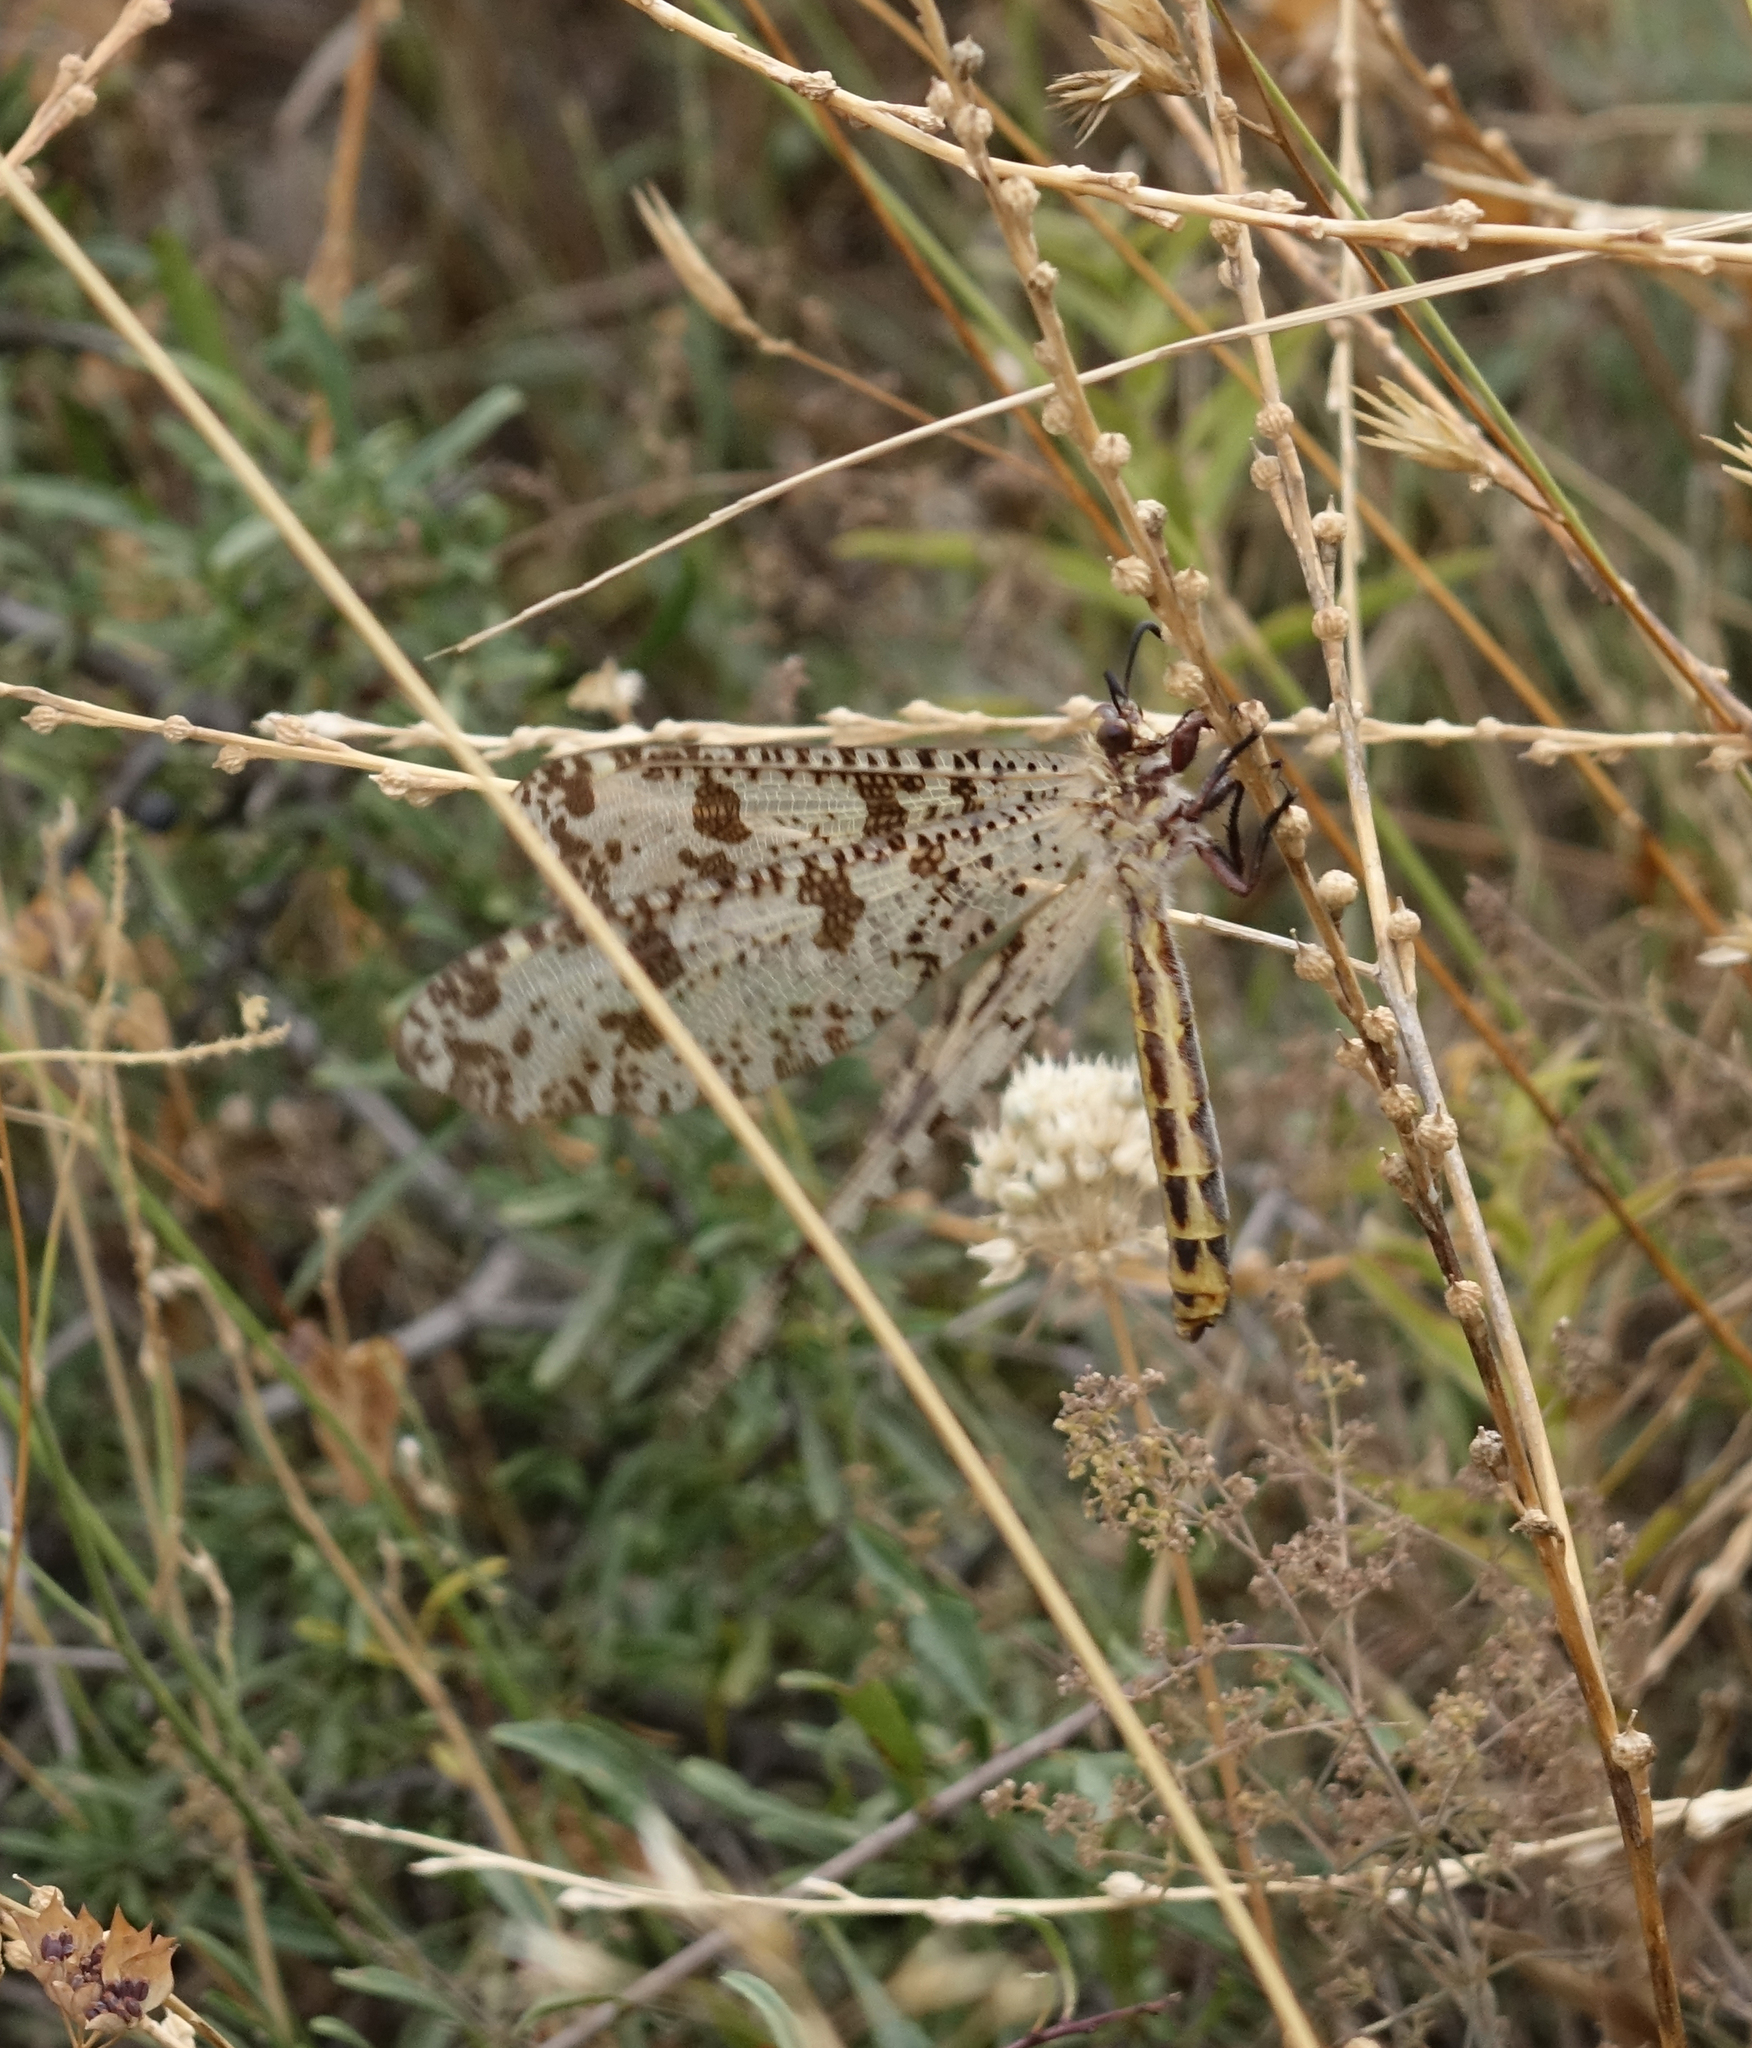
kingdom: Animalia
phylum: Arthropoda
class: Insecta
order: Neuroptera
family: Myrmeleontidae
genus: Palpares
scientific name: Palpares libelluloides
